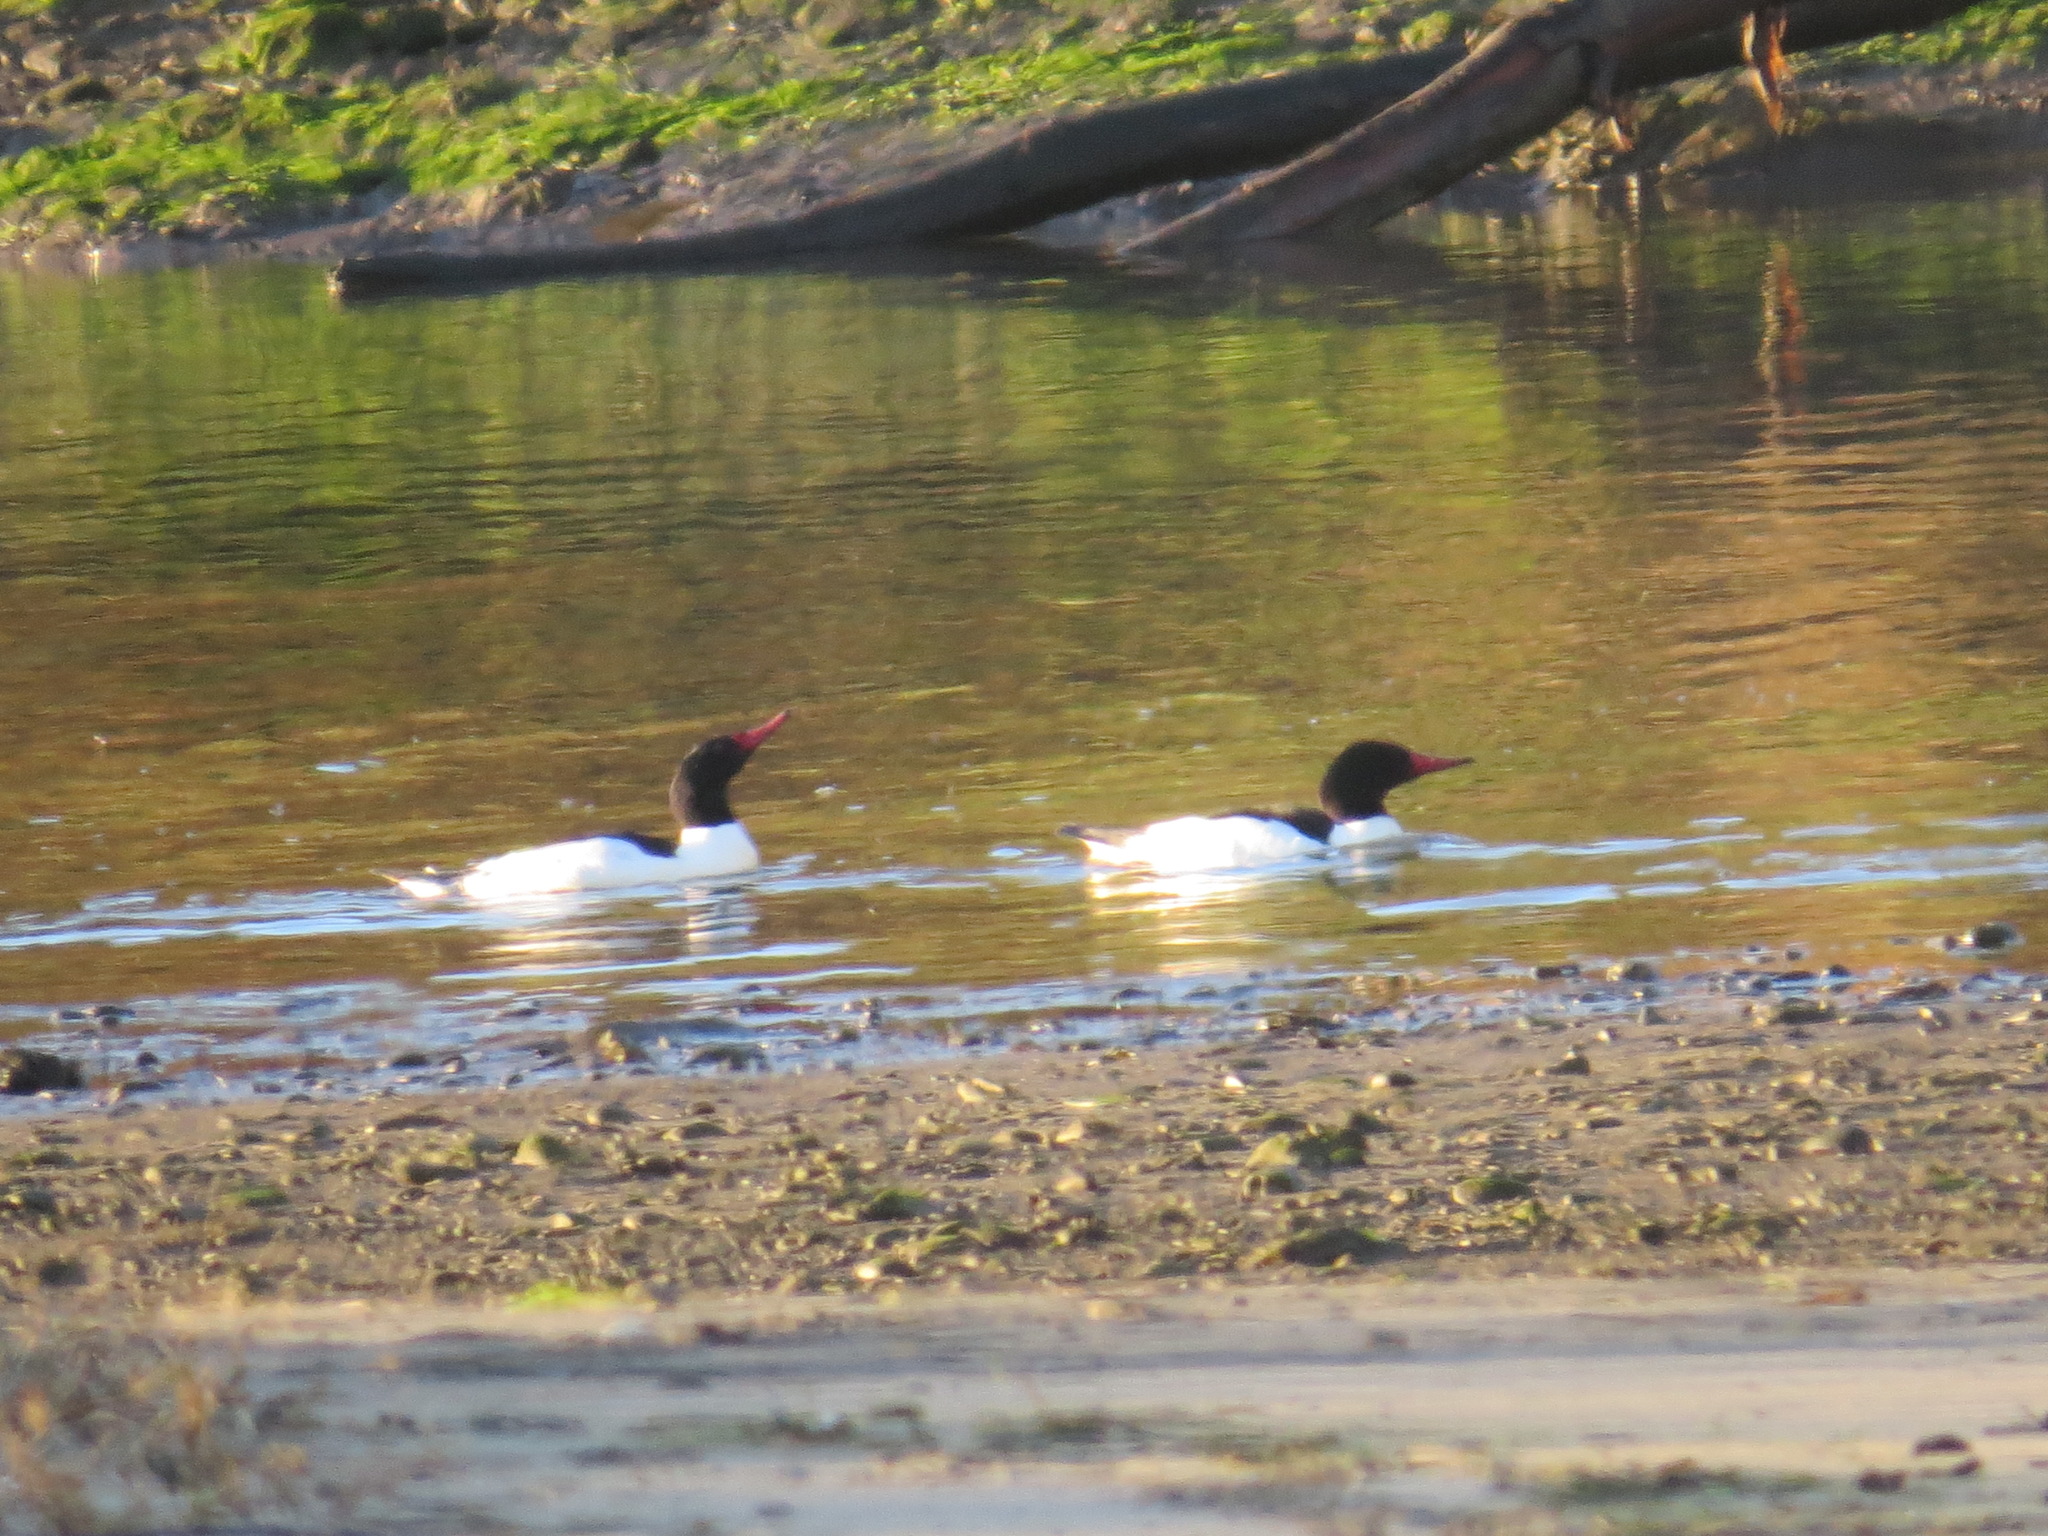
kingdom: Animalia
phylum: Chordata
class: Aves
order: Anseriformes
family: Anatidae
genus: Mergus
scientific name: Mergus merganser
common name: Common merganser
